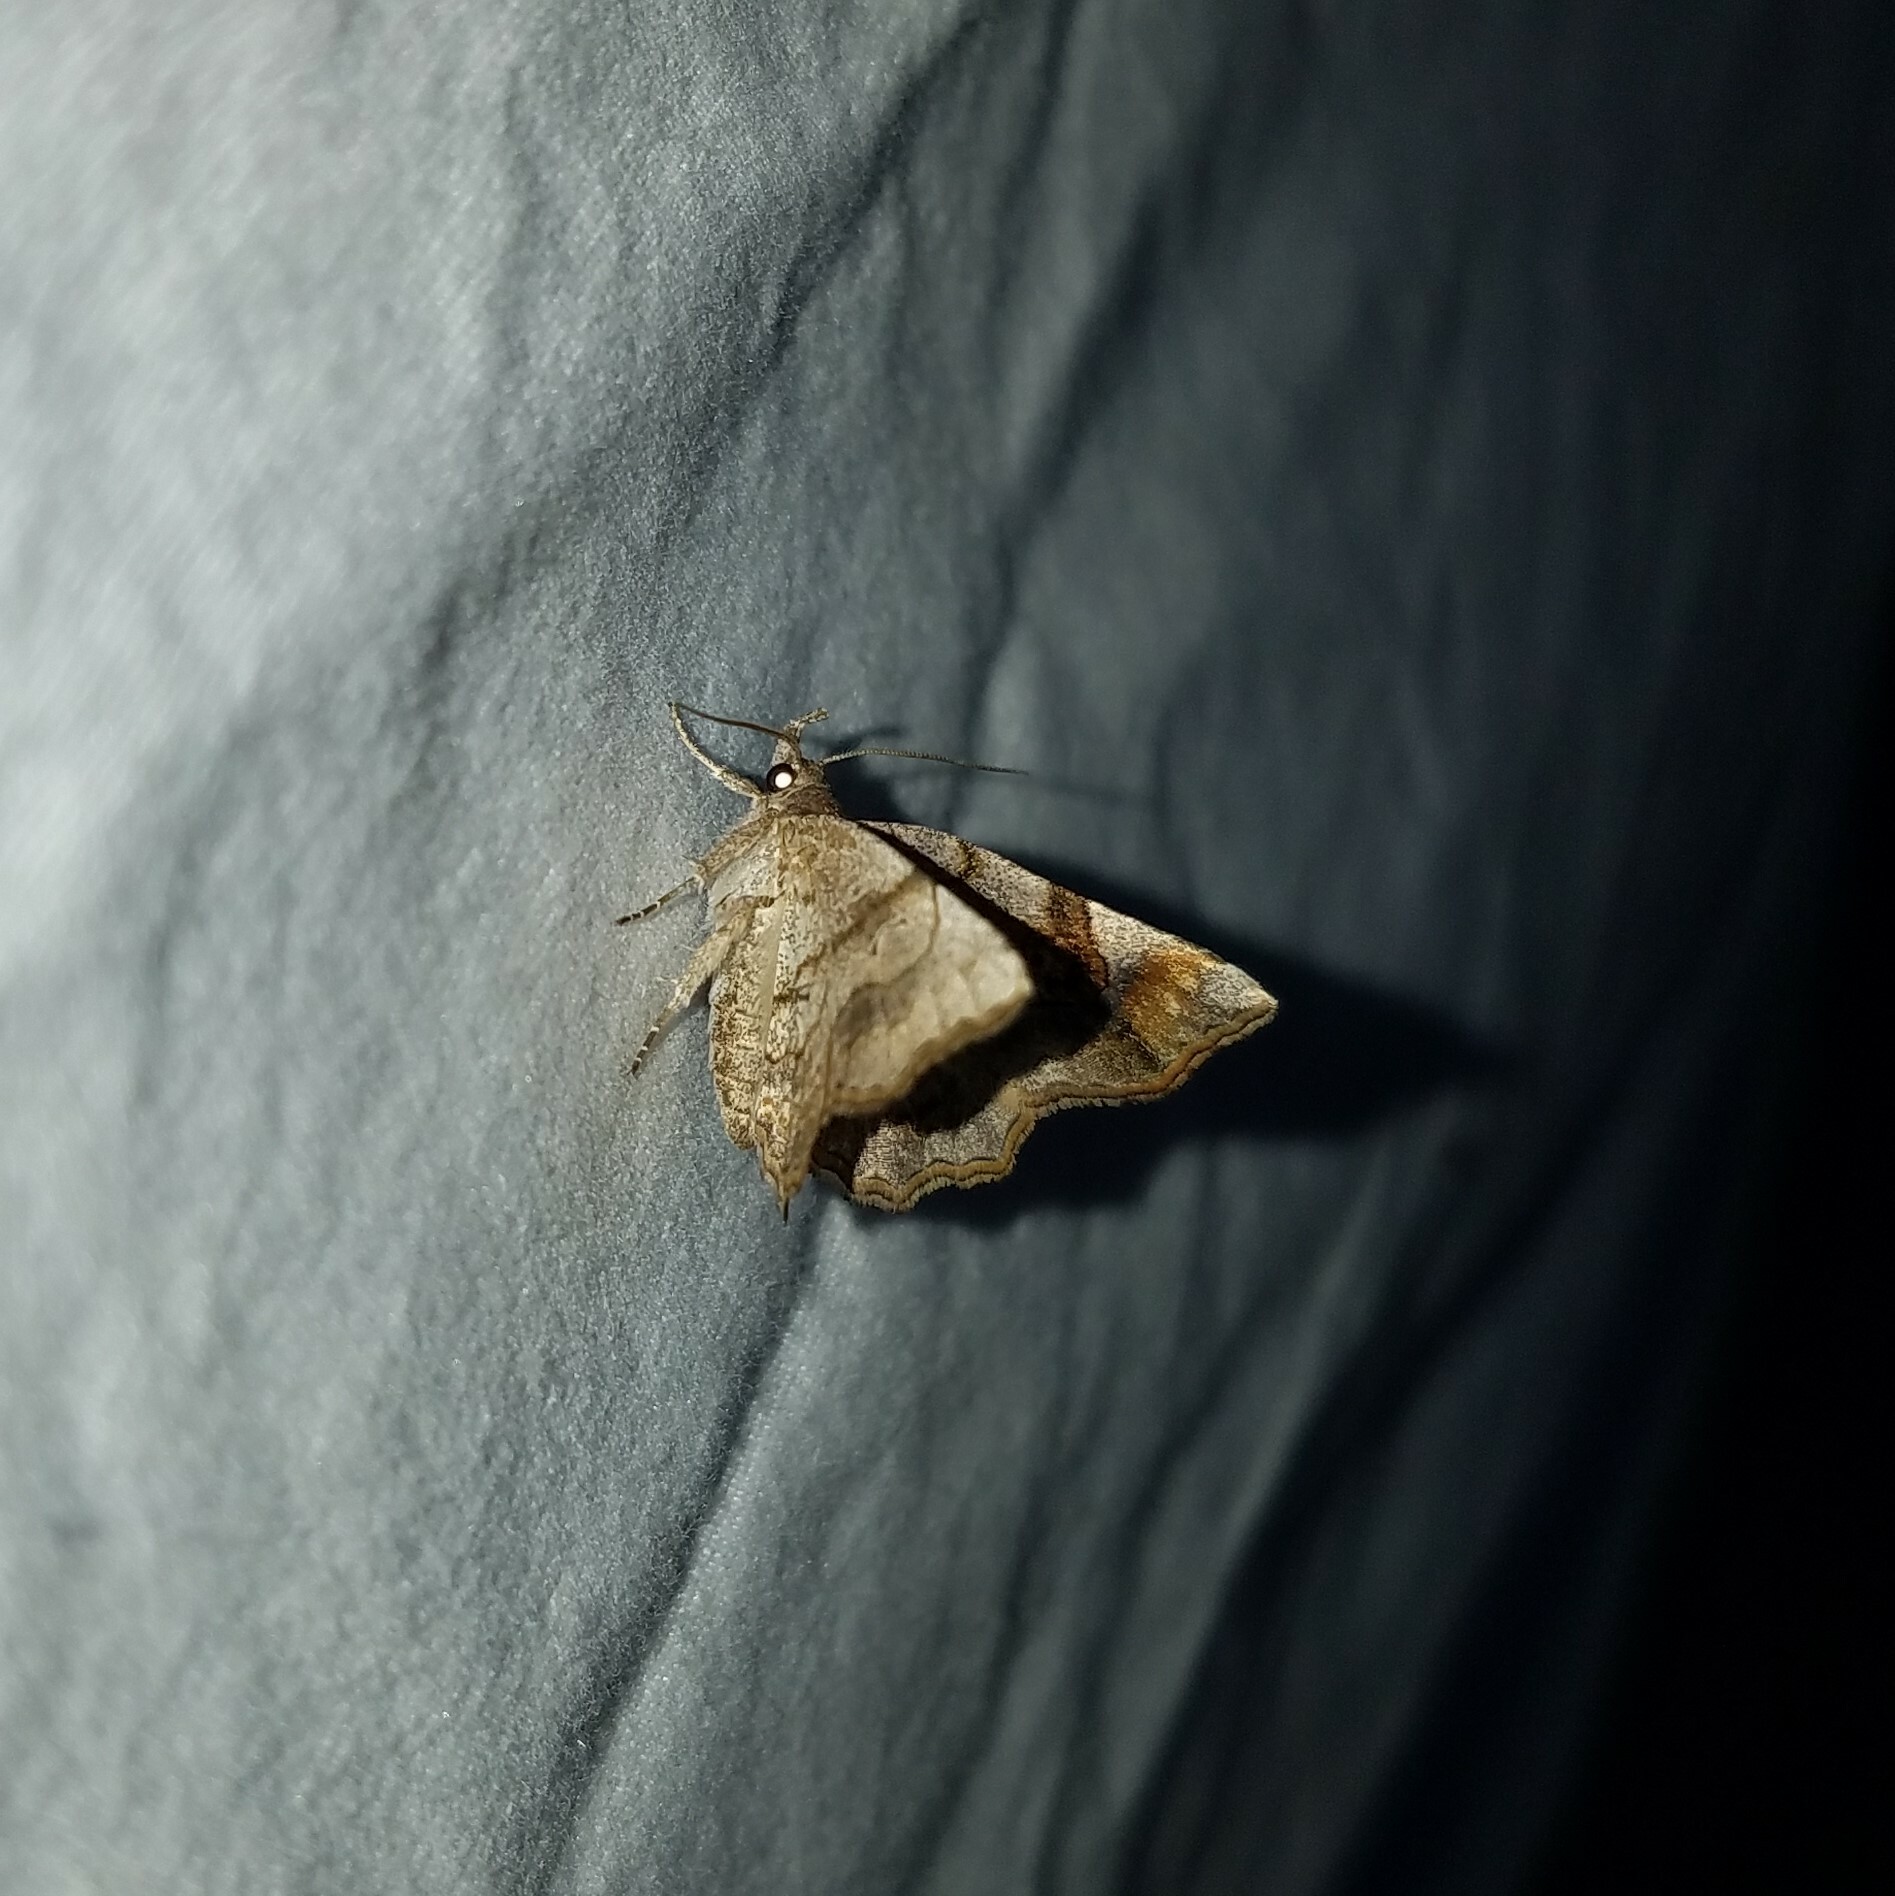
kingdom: Animalia
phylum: Arthropoda
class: Insecta
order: Lepidoptera
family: Erebidae
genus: Pangrapta
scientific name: Pangrapta decoralis
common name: Decorated owlet
